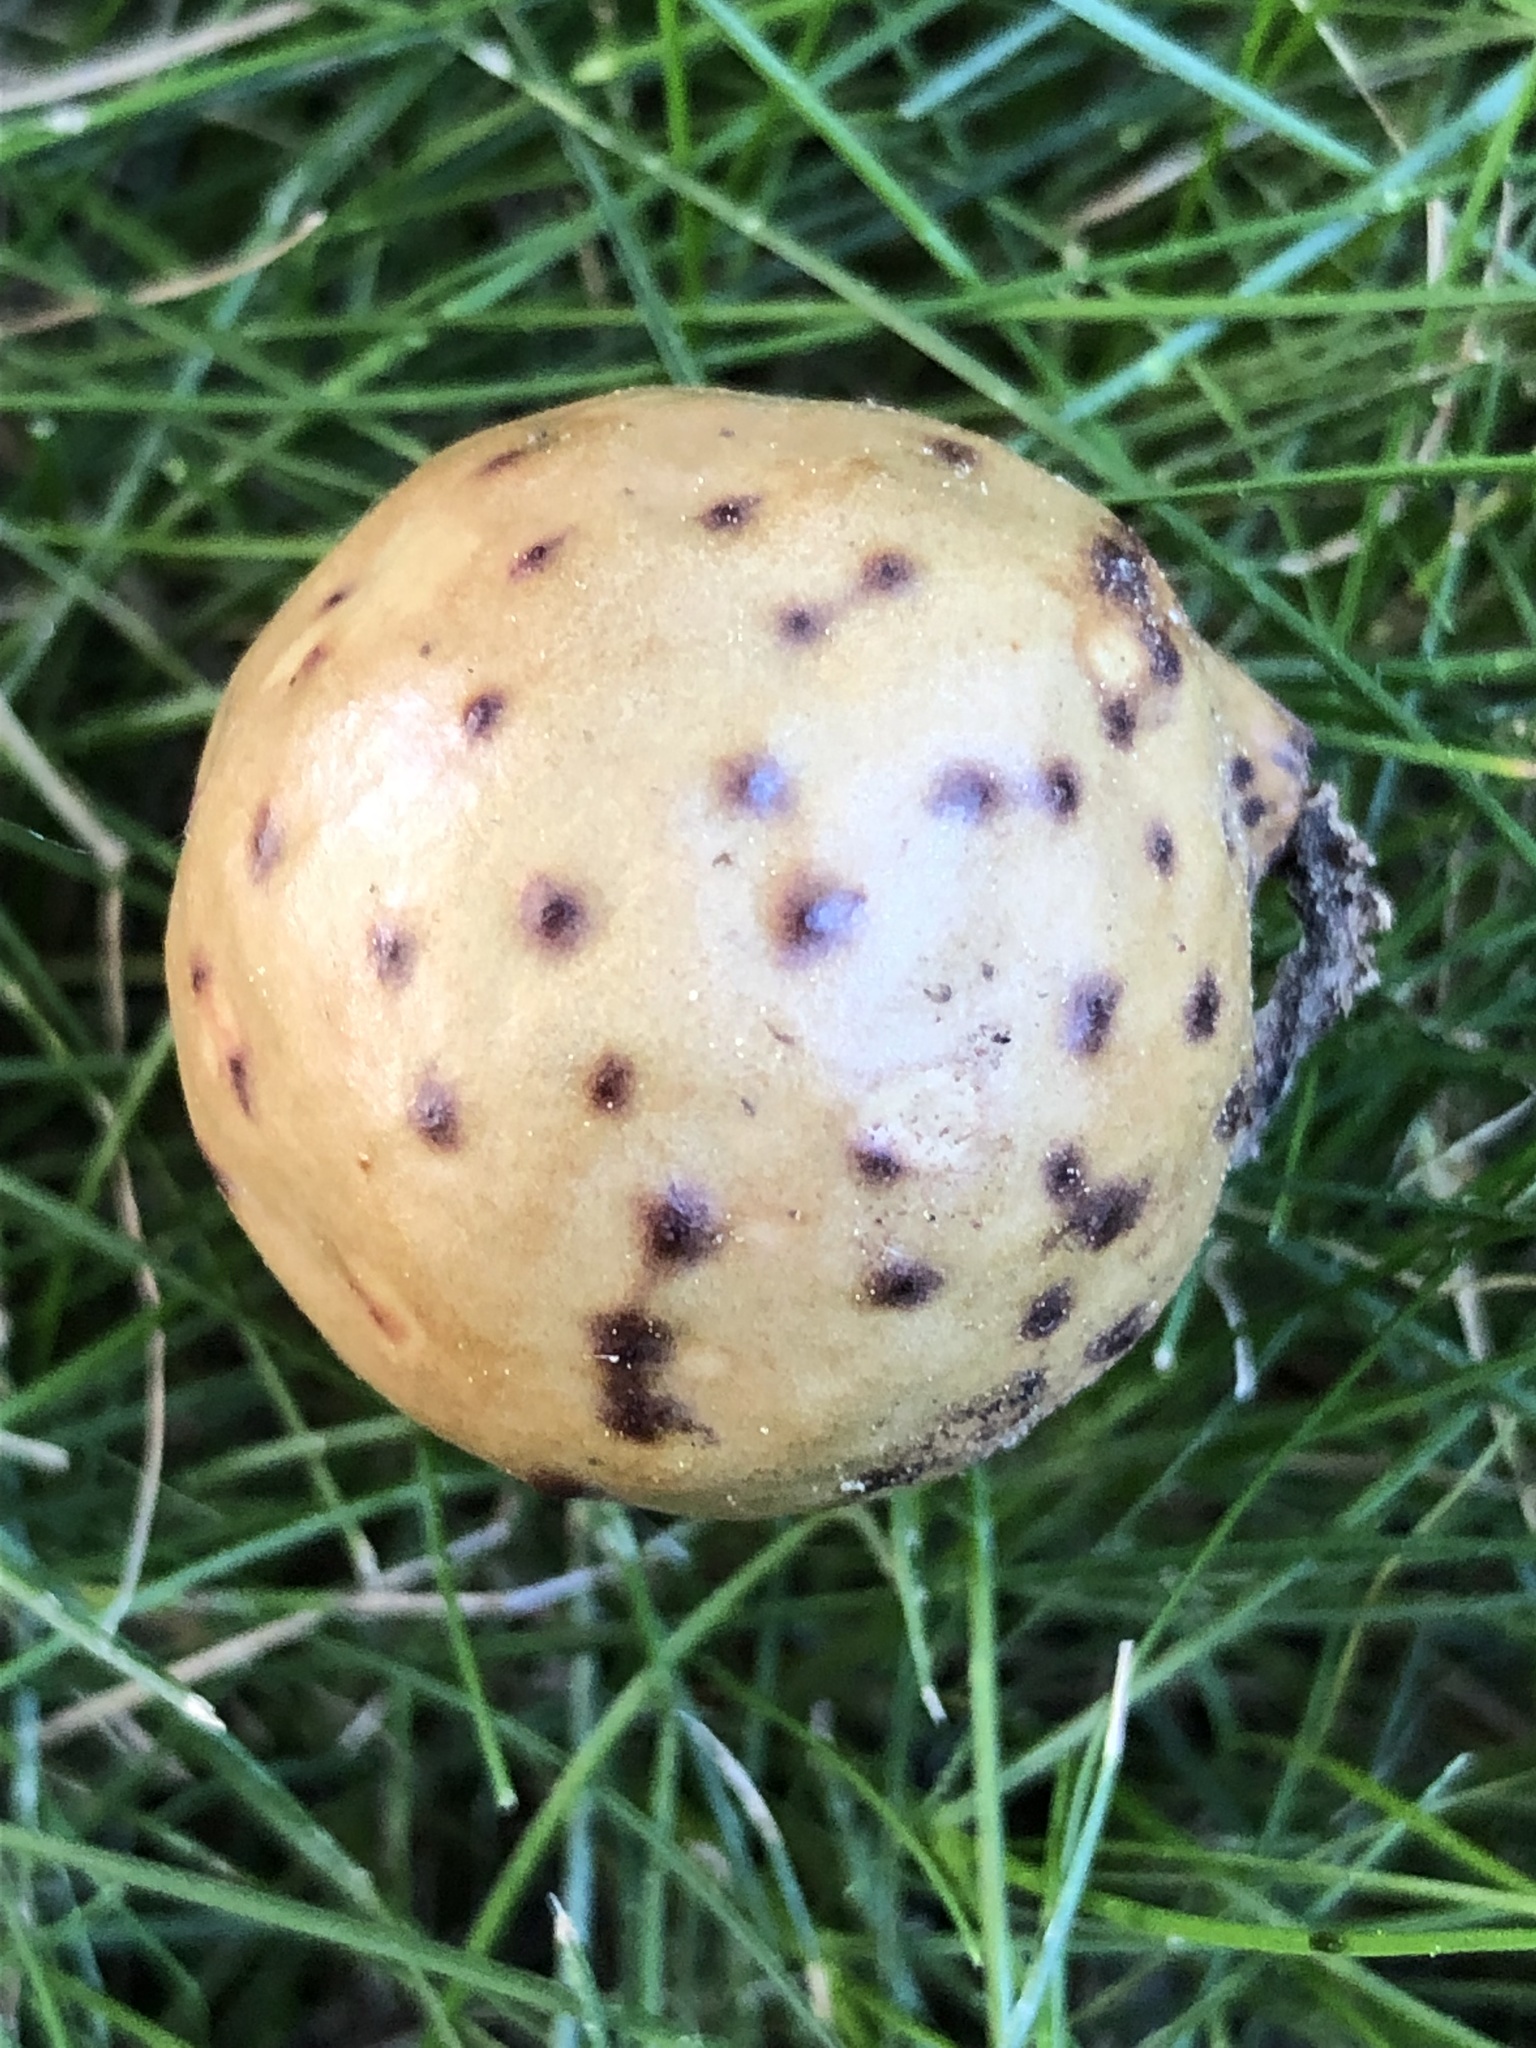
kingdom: Animalia
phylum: Arthropoda
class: Insecta
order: Hymenoptera
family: Cynipidae
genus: Amphibolips
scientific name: Amphibolips
